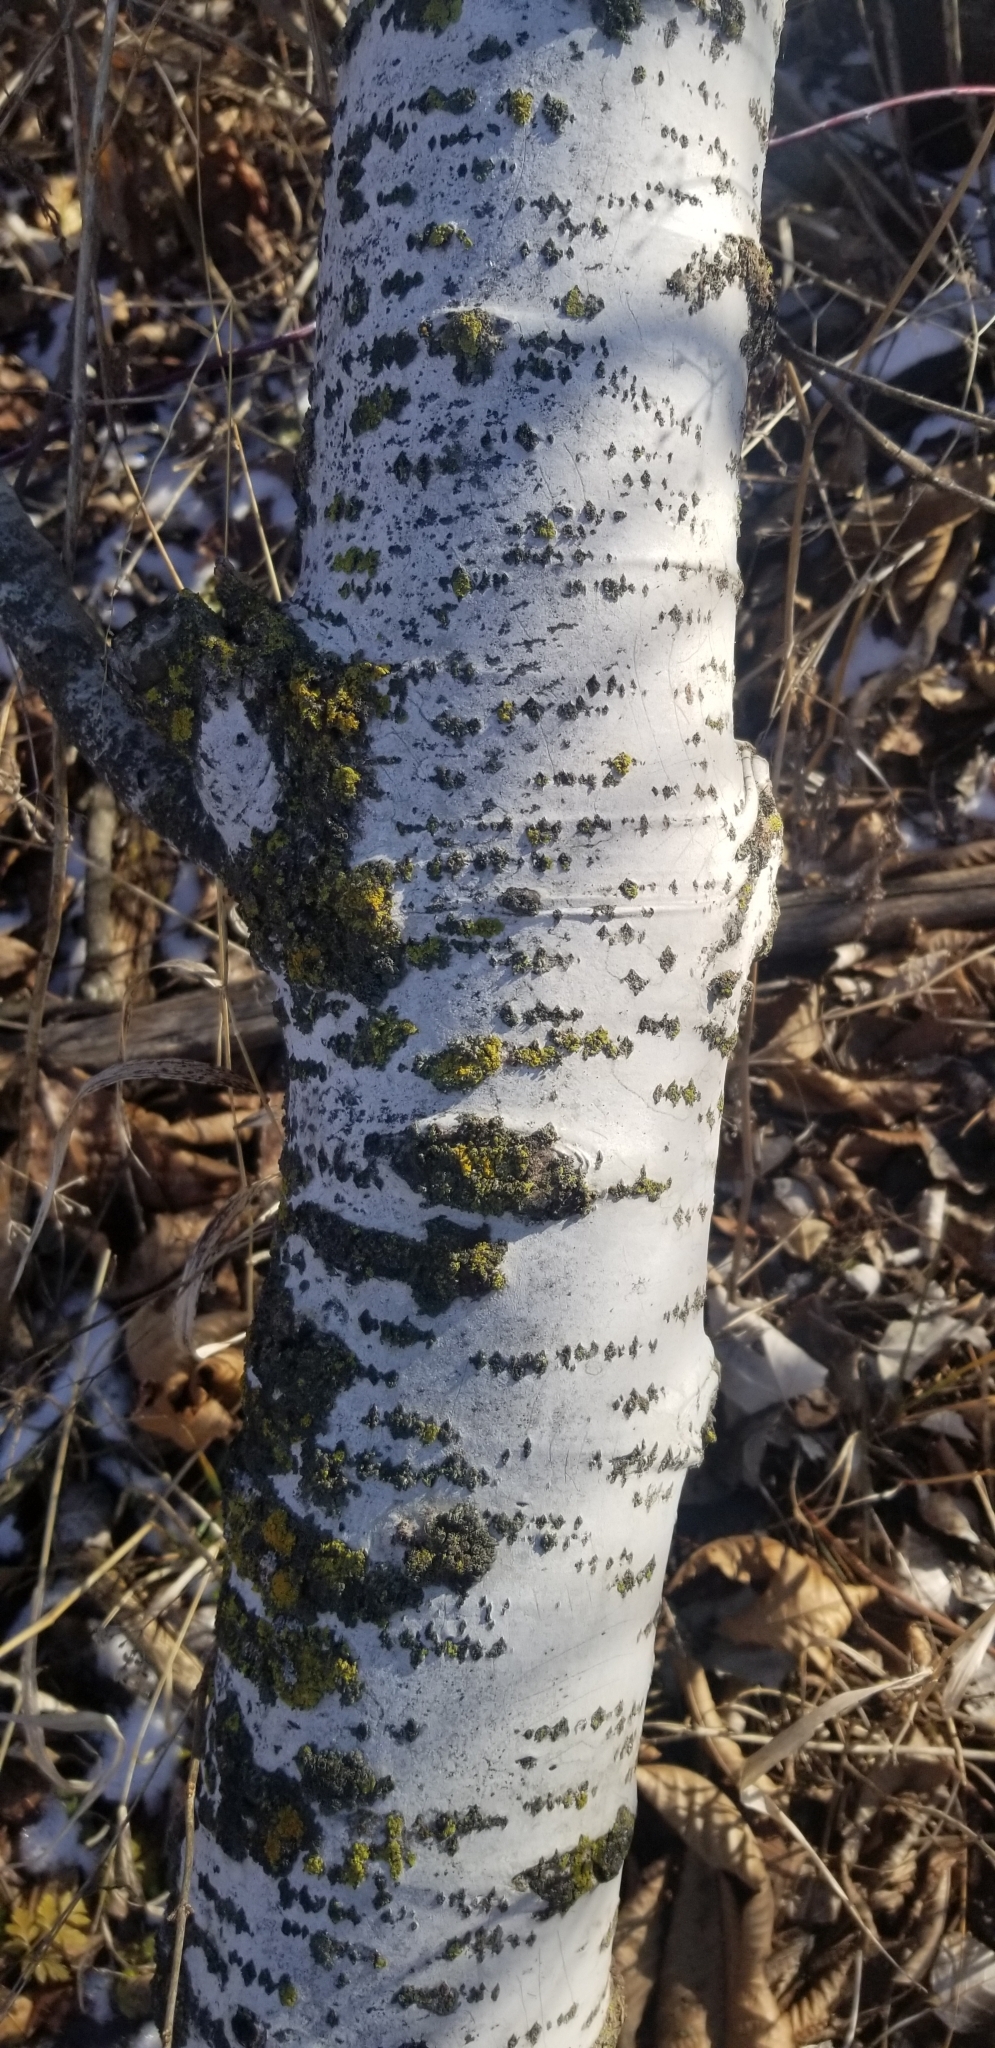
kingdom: Plantae
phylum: Tracheophyta
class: Magnoliopsida
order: Malpighiales
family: Salicaceae
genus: Populus
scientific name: Populus tremuloides
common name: Quaking aspen
